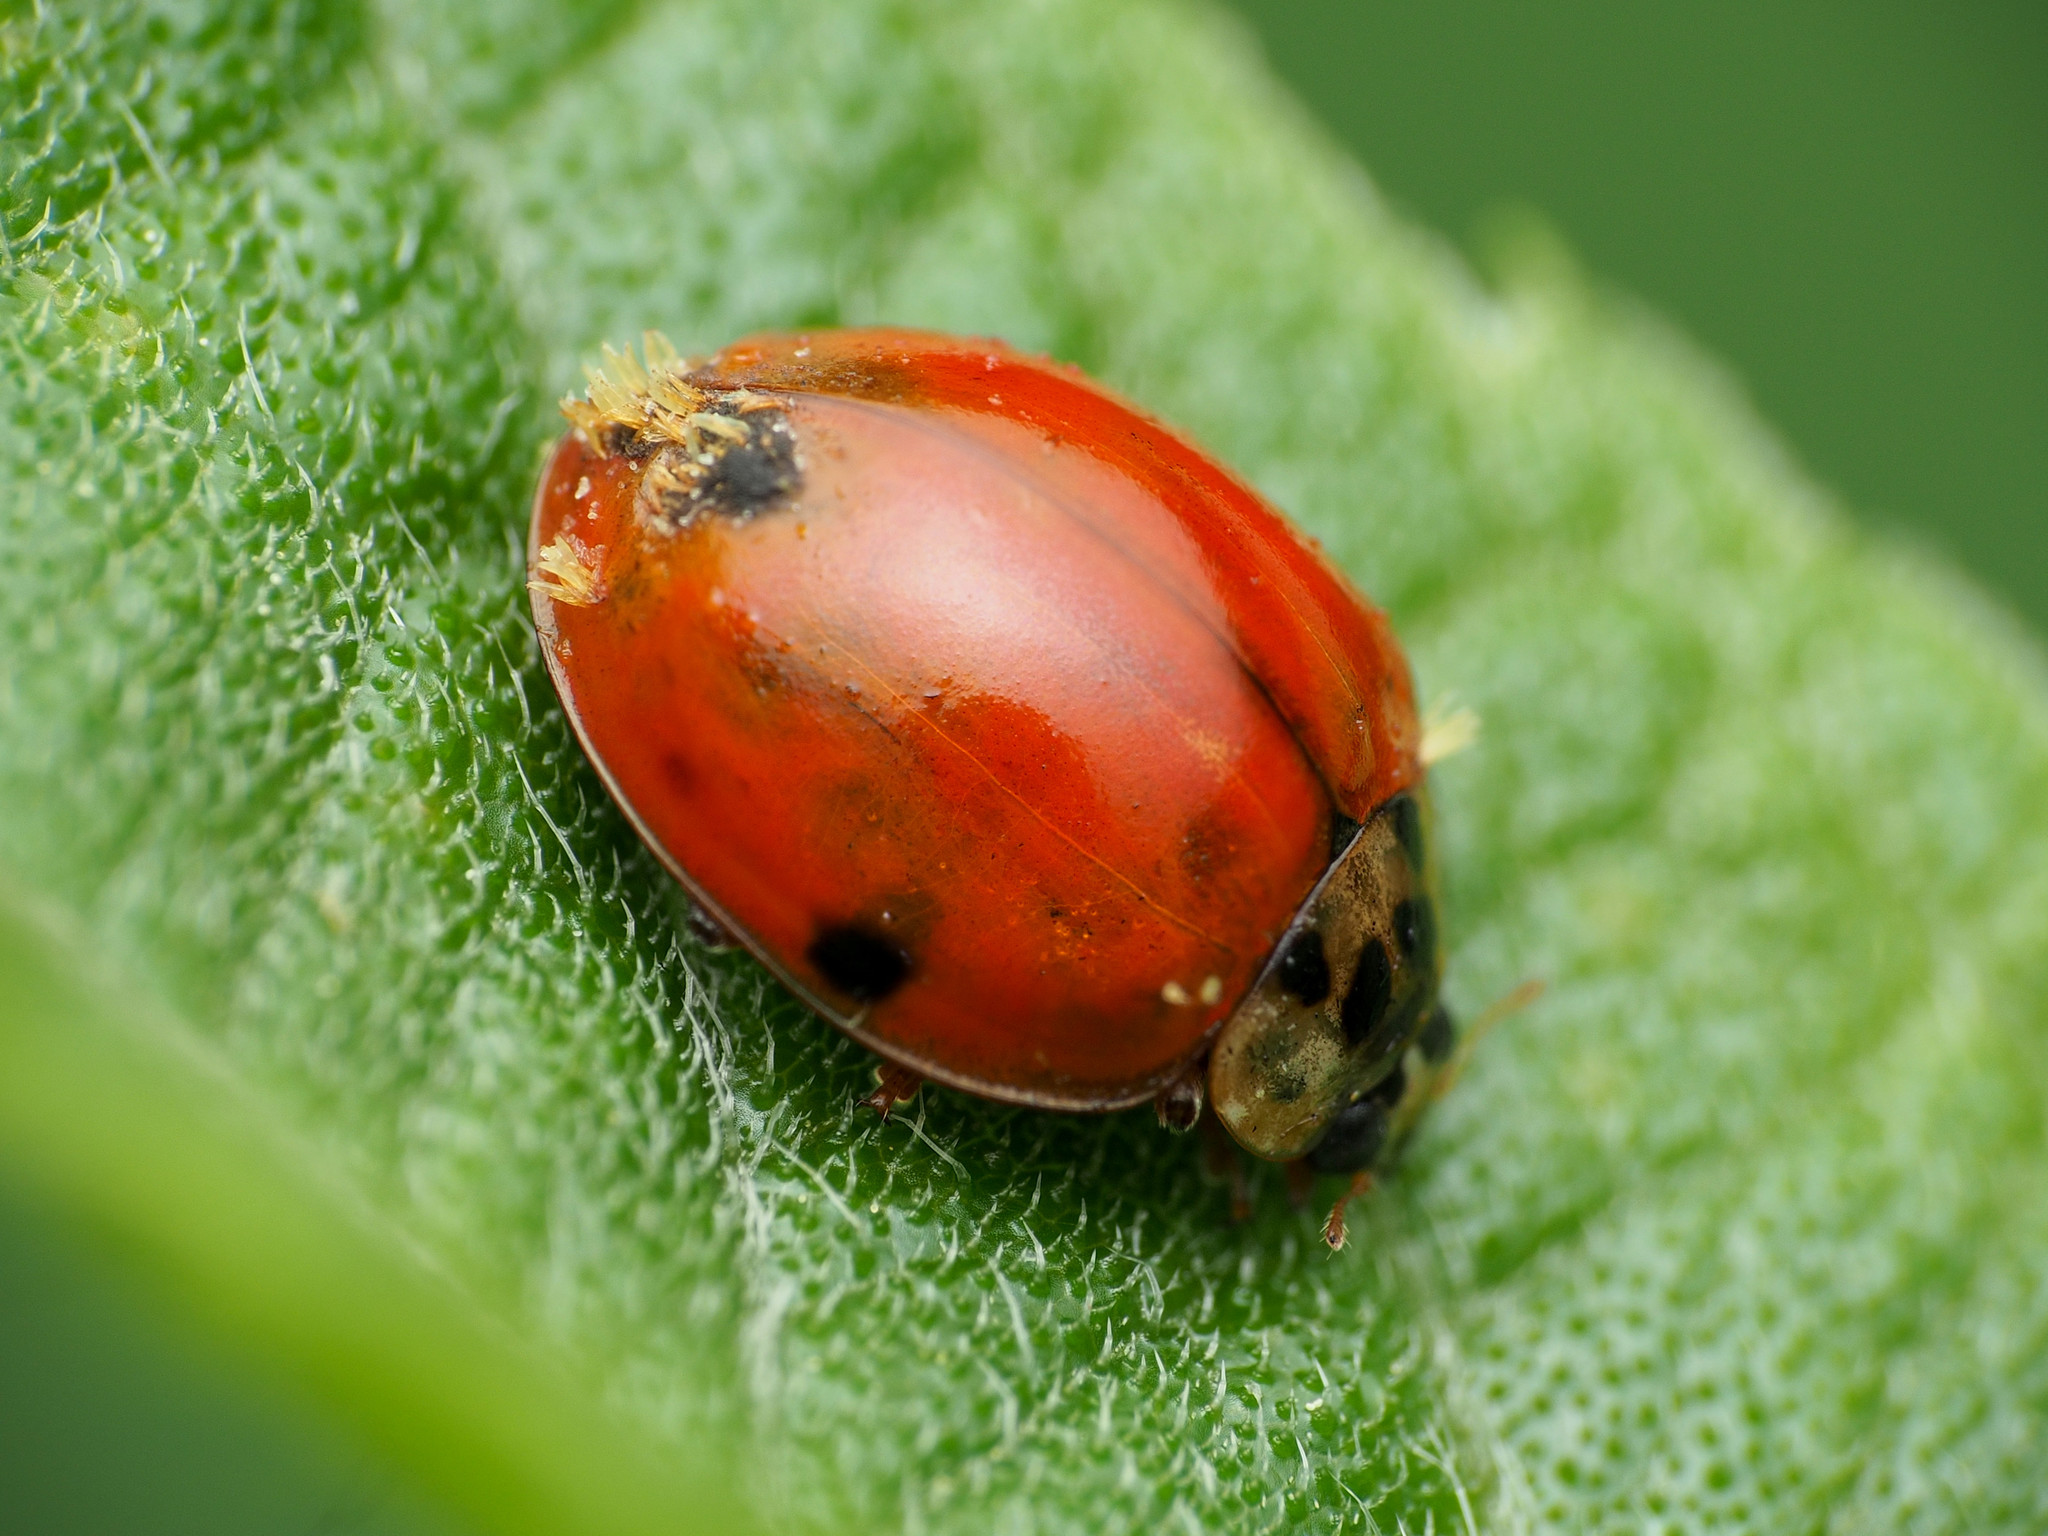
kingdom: Animalia
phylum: Arthropoda
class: Insecta
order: Coleoptera
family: Coccinellidae
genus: Harmonia
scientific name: Harmonia axyridis
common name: Harlequin ladybird
